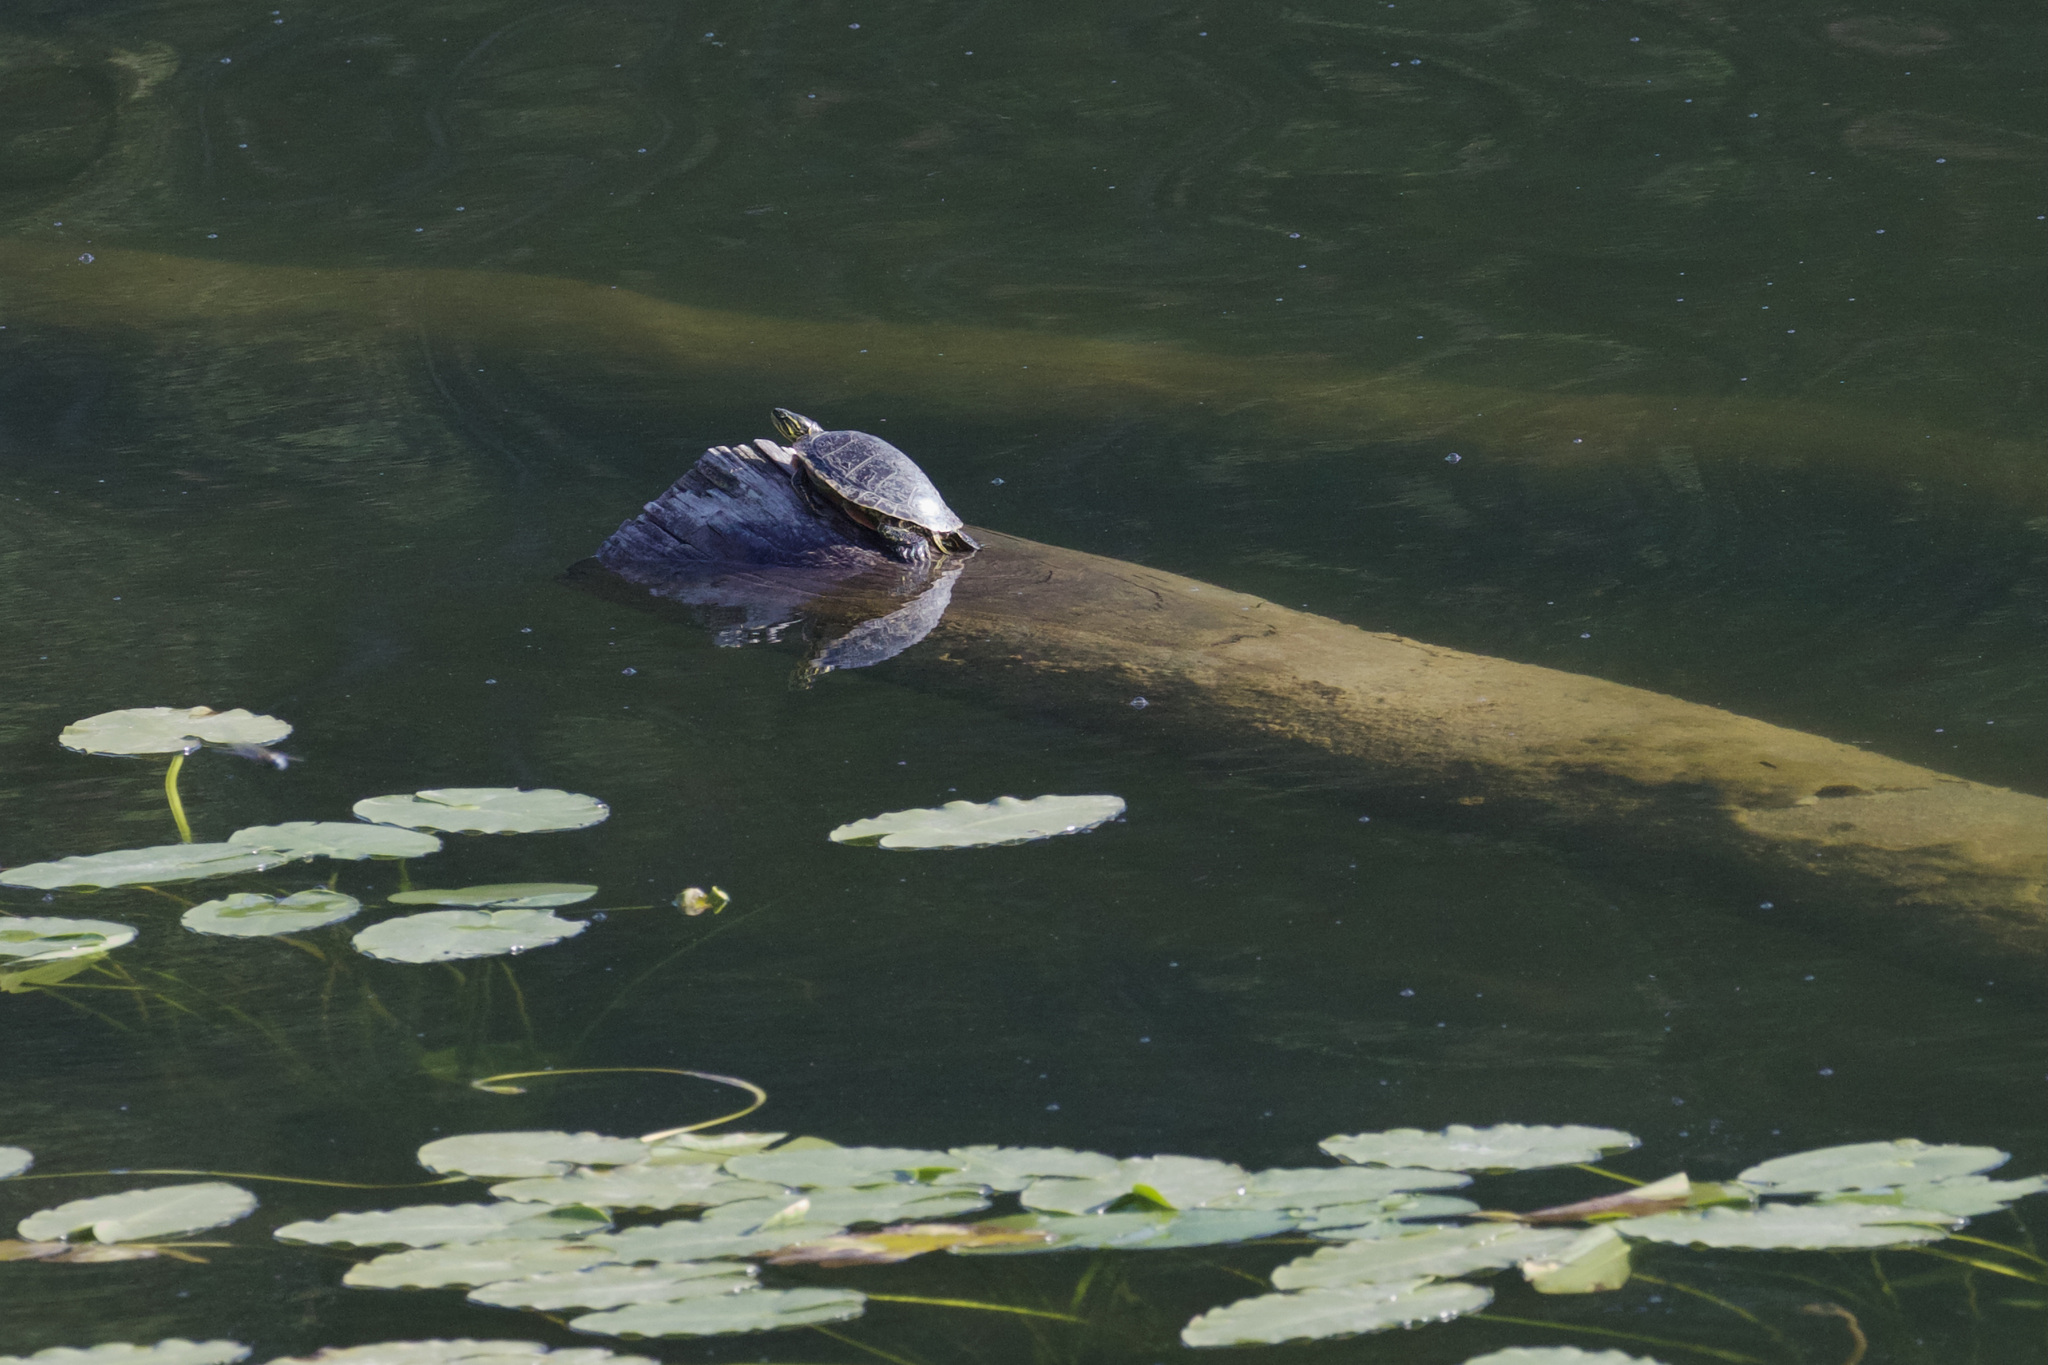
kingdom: Animalia
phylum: Chordata
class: Testudines
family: Emydidae
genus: Chrysemys
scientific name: Chrysemys picta
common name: Painted turtle
